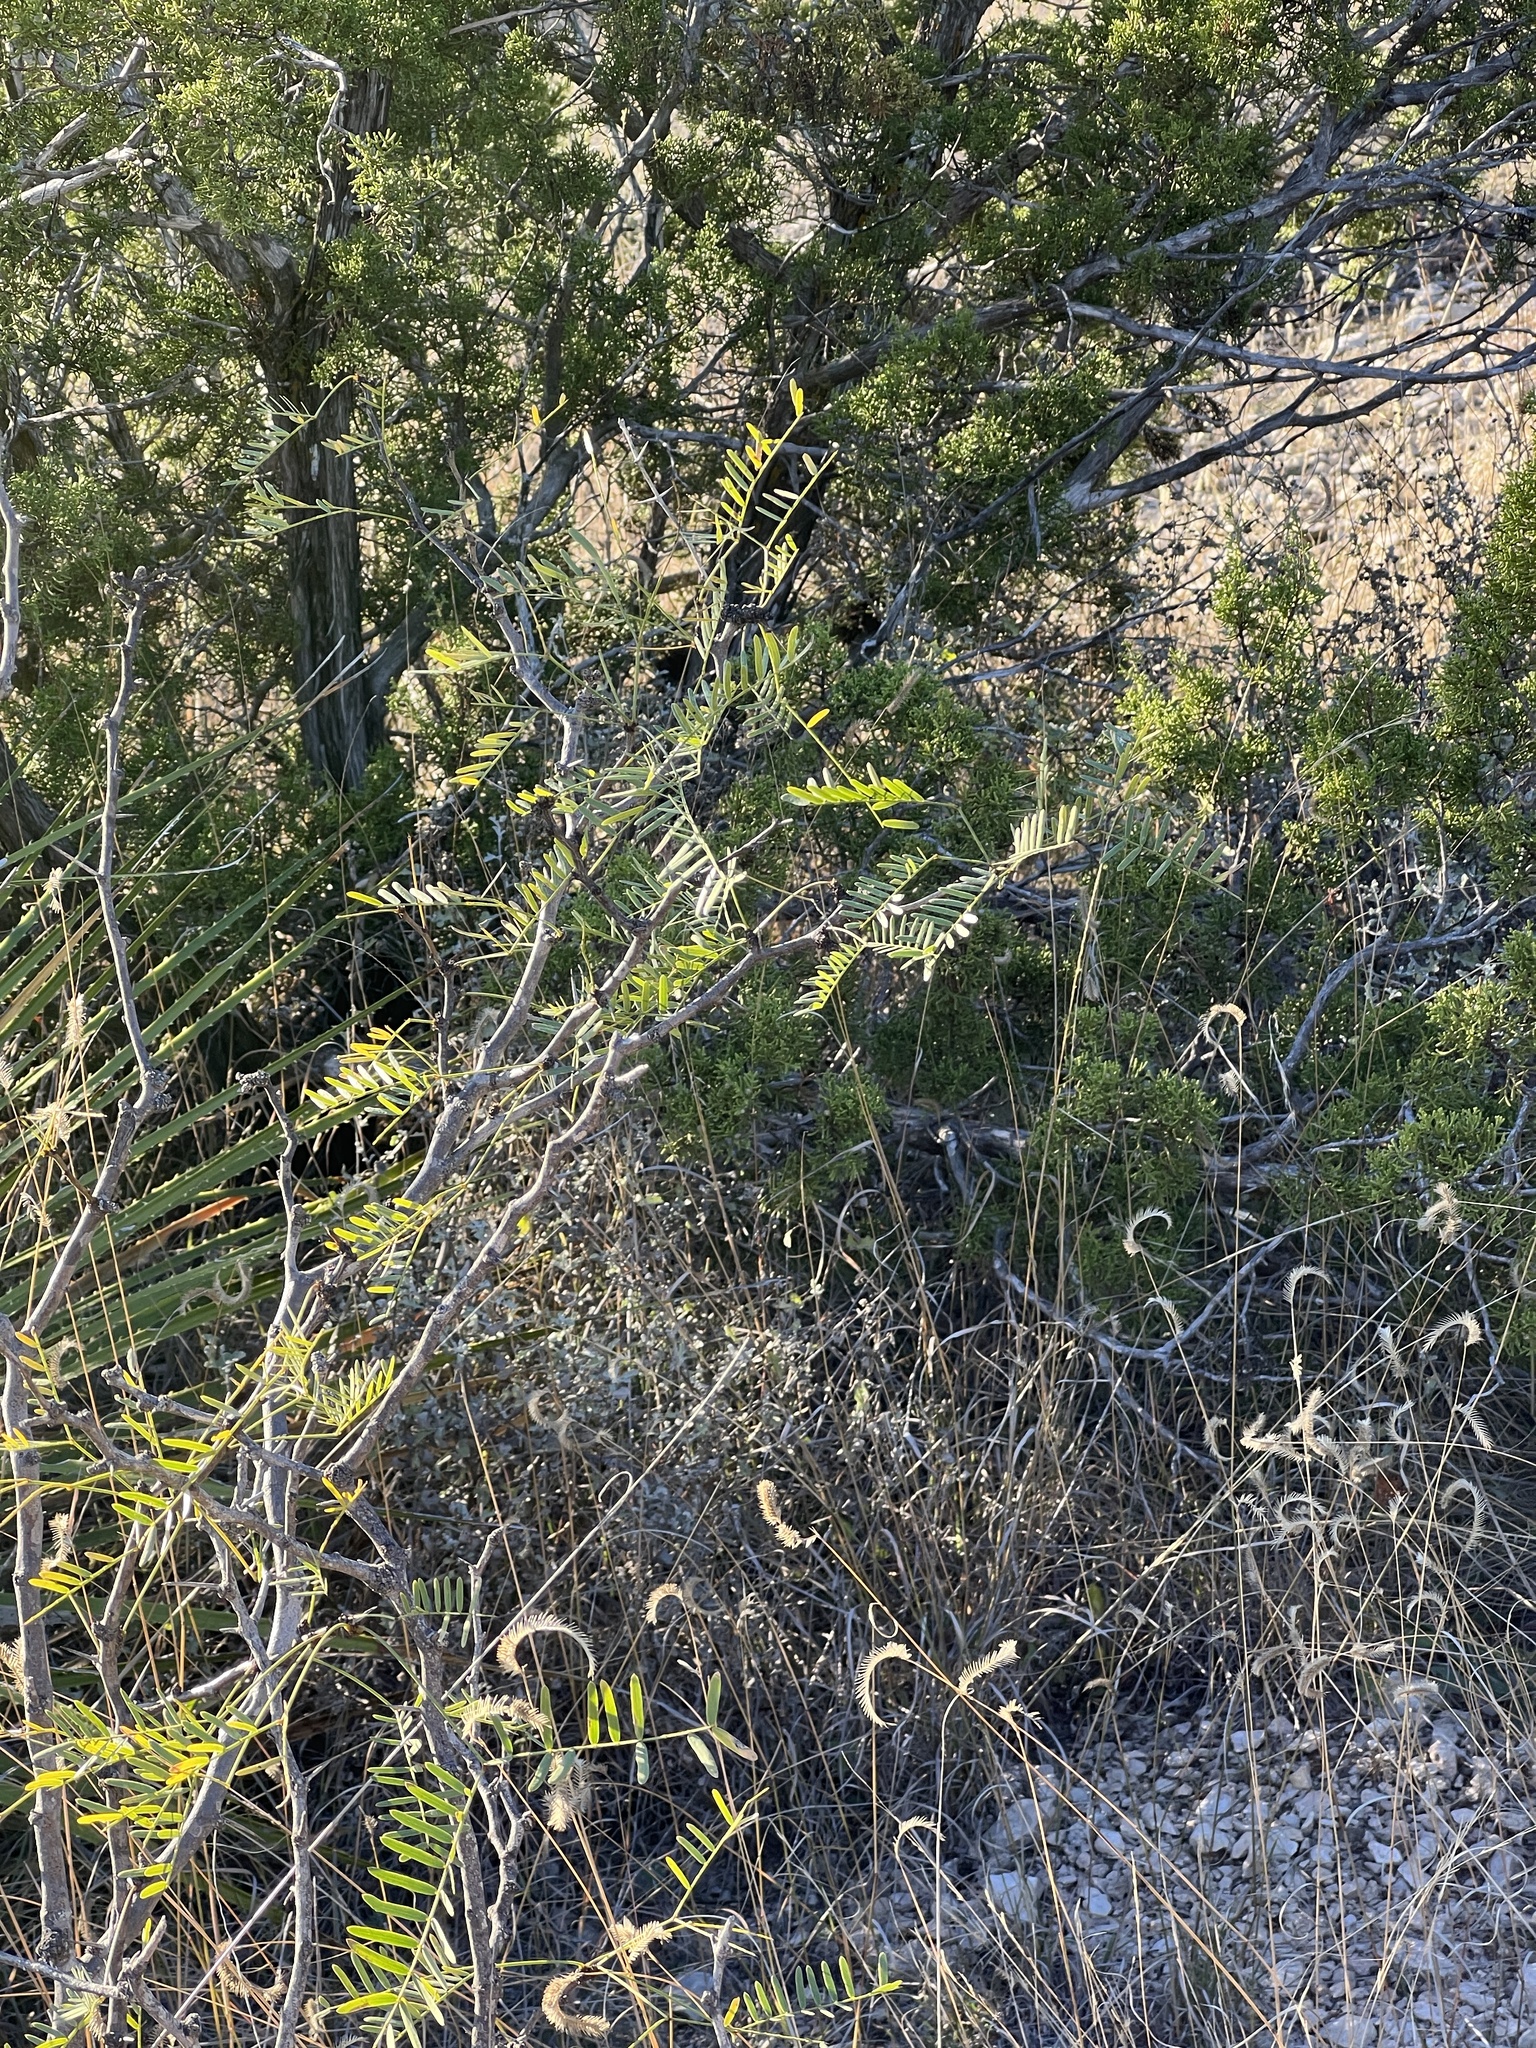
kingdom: Plantae
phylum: Tracheophyta
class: Magnoliopsida
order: Fabales
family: Fabaceae
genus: Prosopis
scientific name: Prosopis pubescens
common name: Screw-bean
